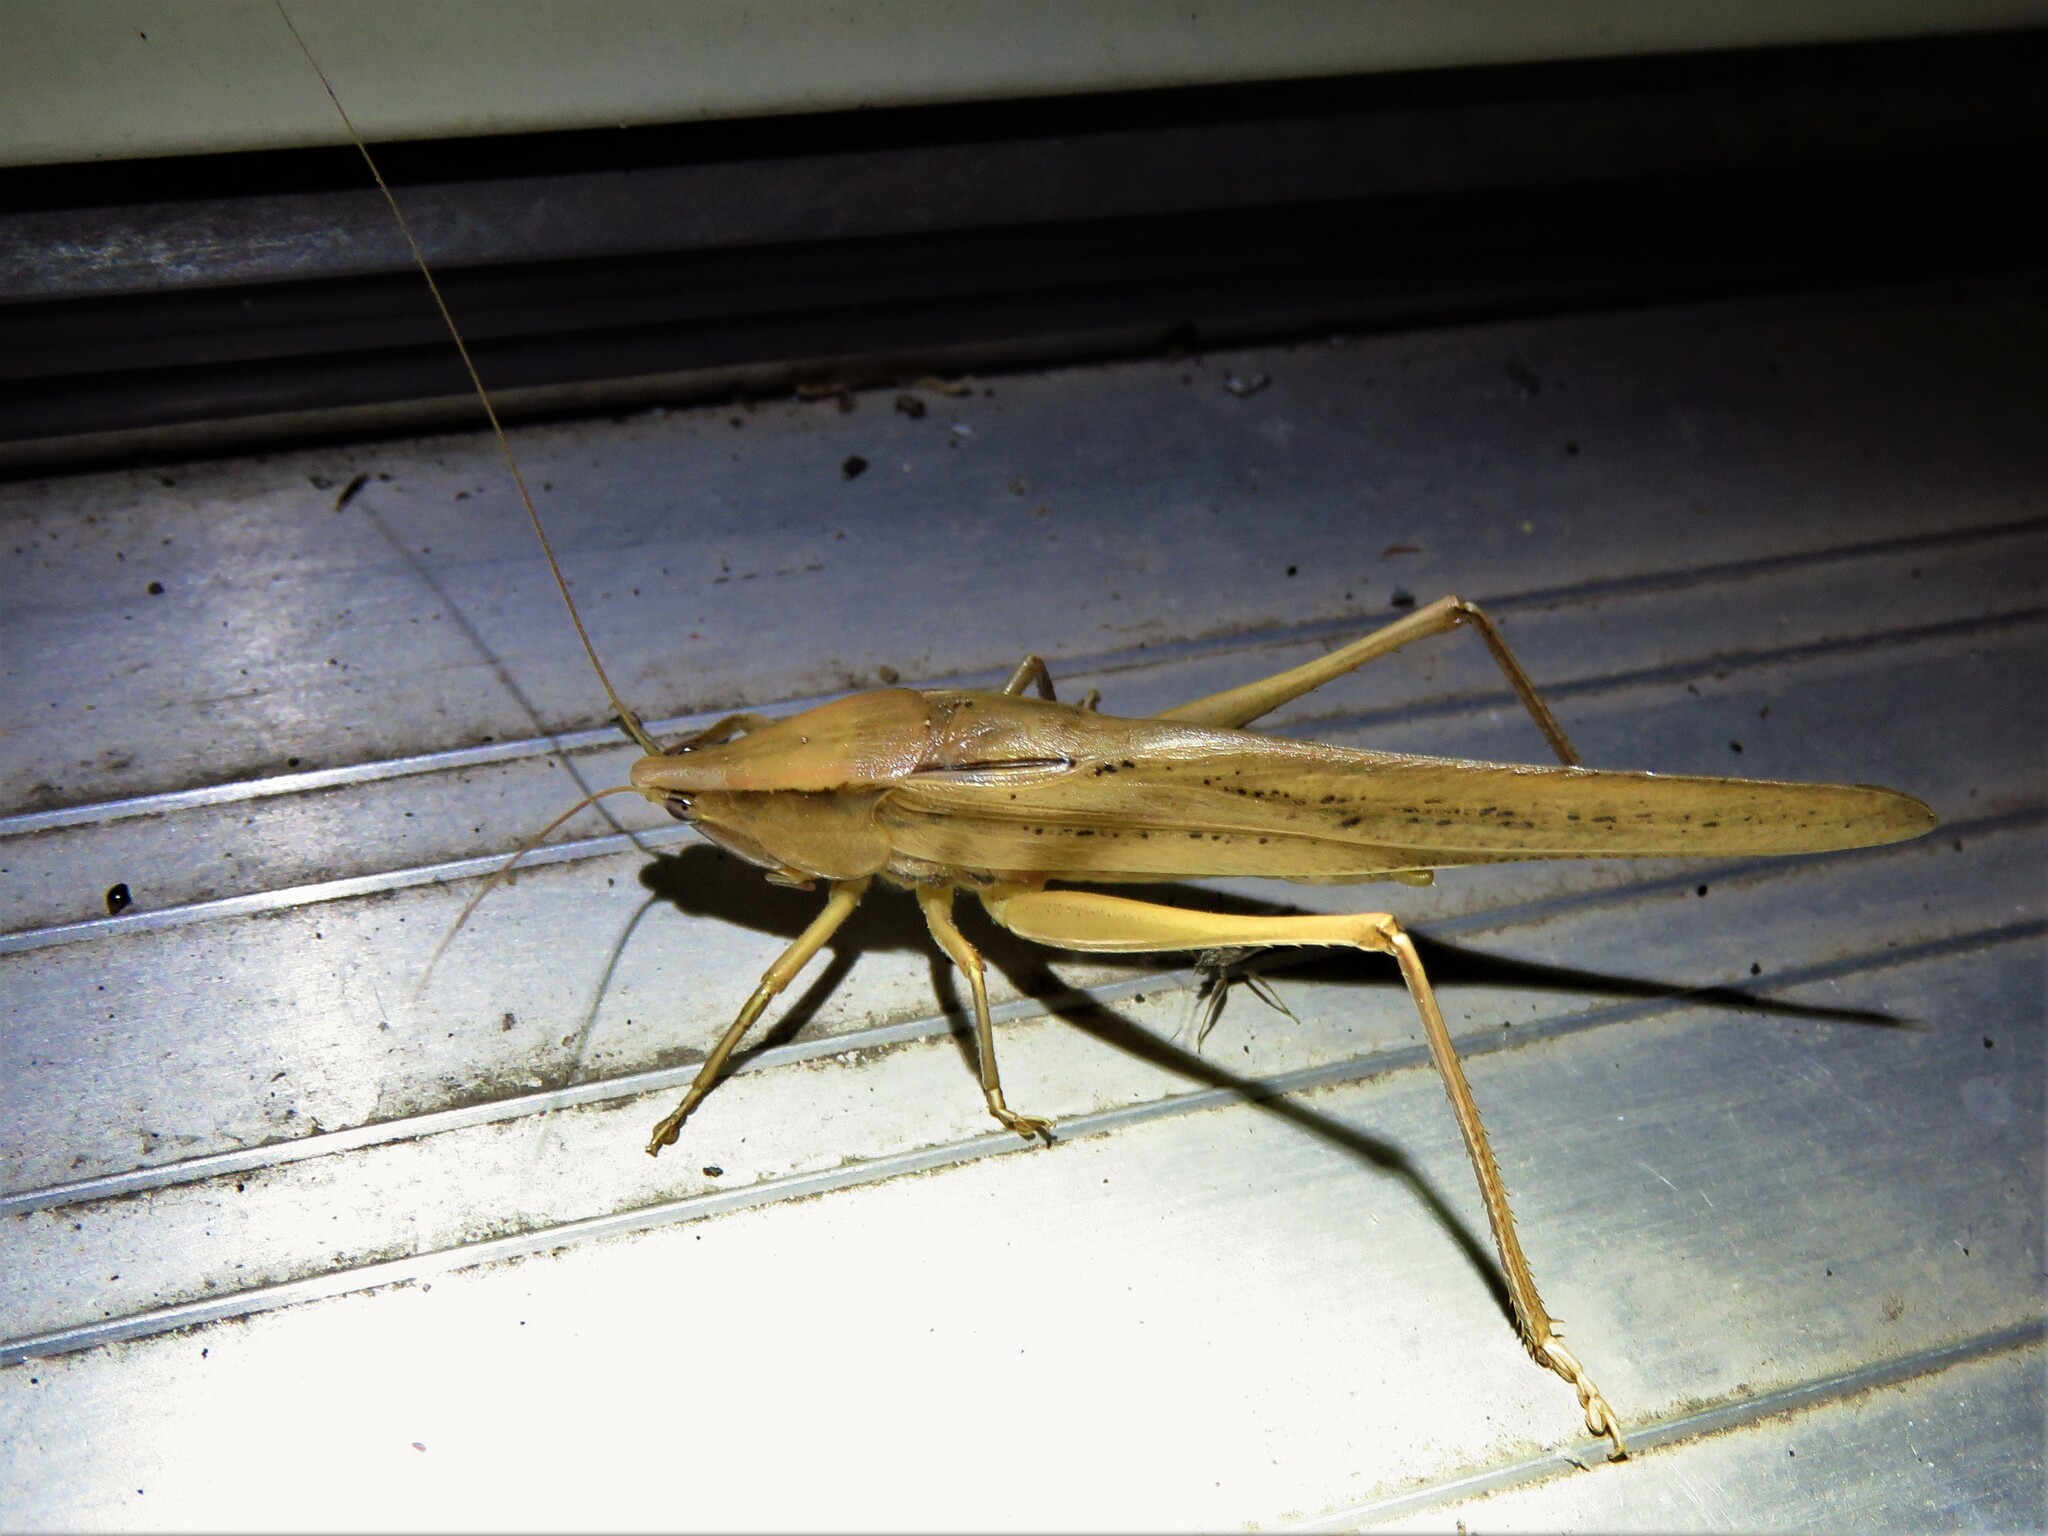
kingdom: Animalia
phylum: Arthropoda
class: Insecta
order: Orthoptera
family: Tettigoniidae
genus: Neoconocephalus
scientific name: Neoconocephalus triops
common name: Broad-tipped conehead
